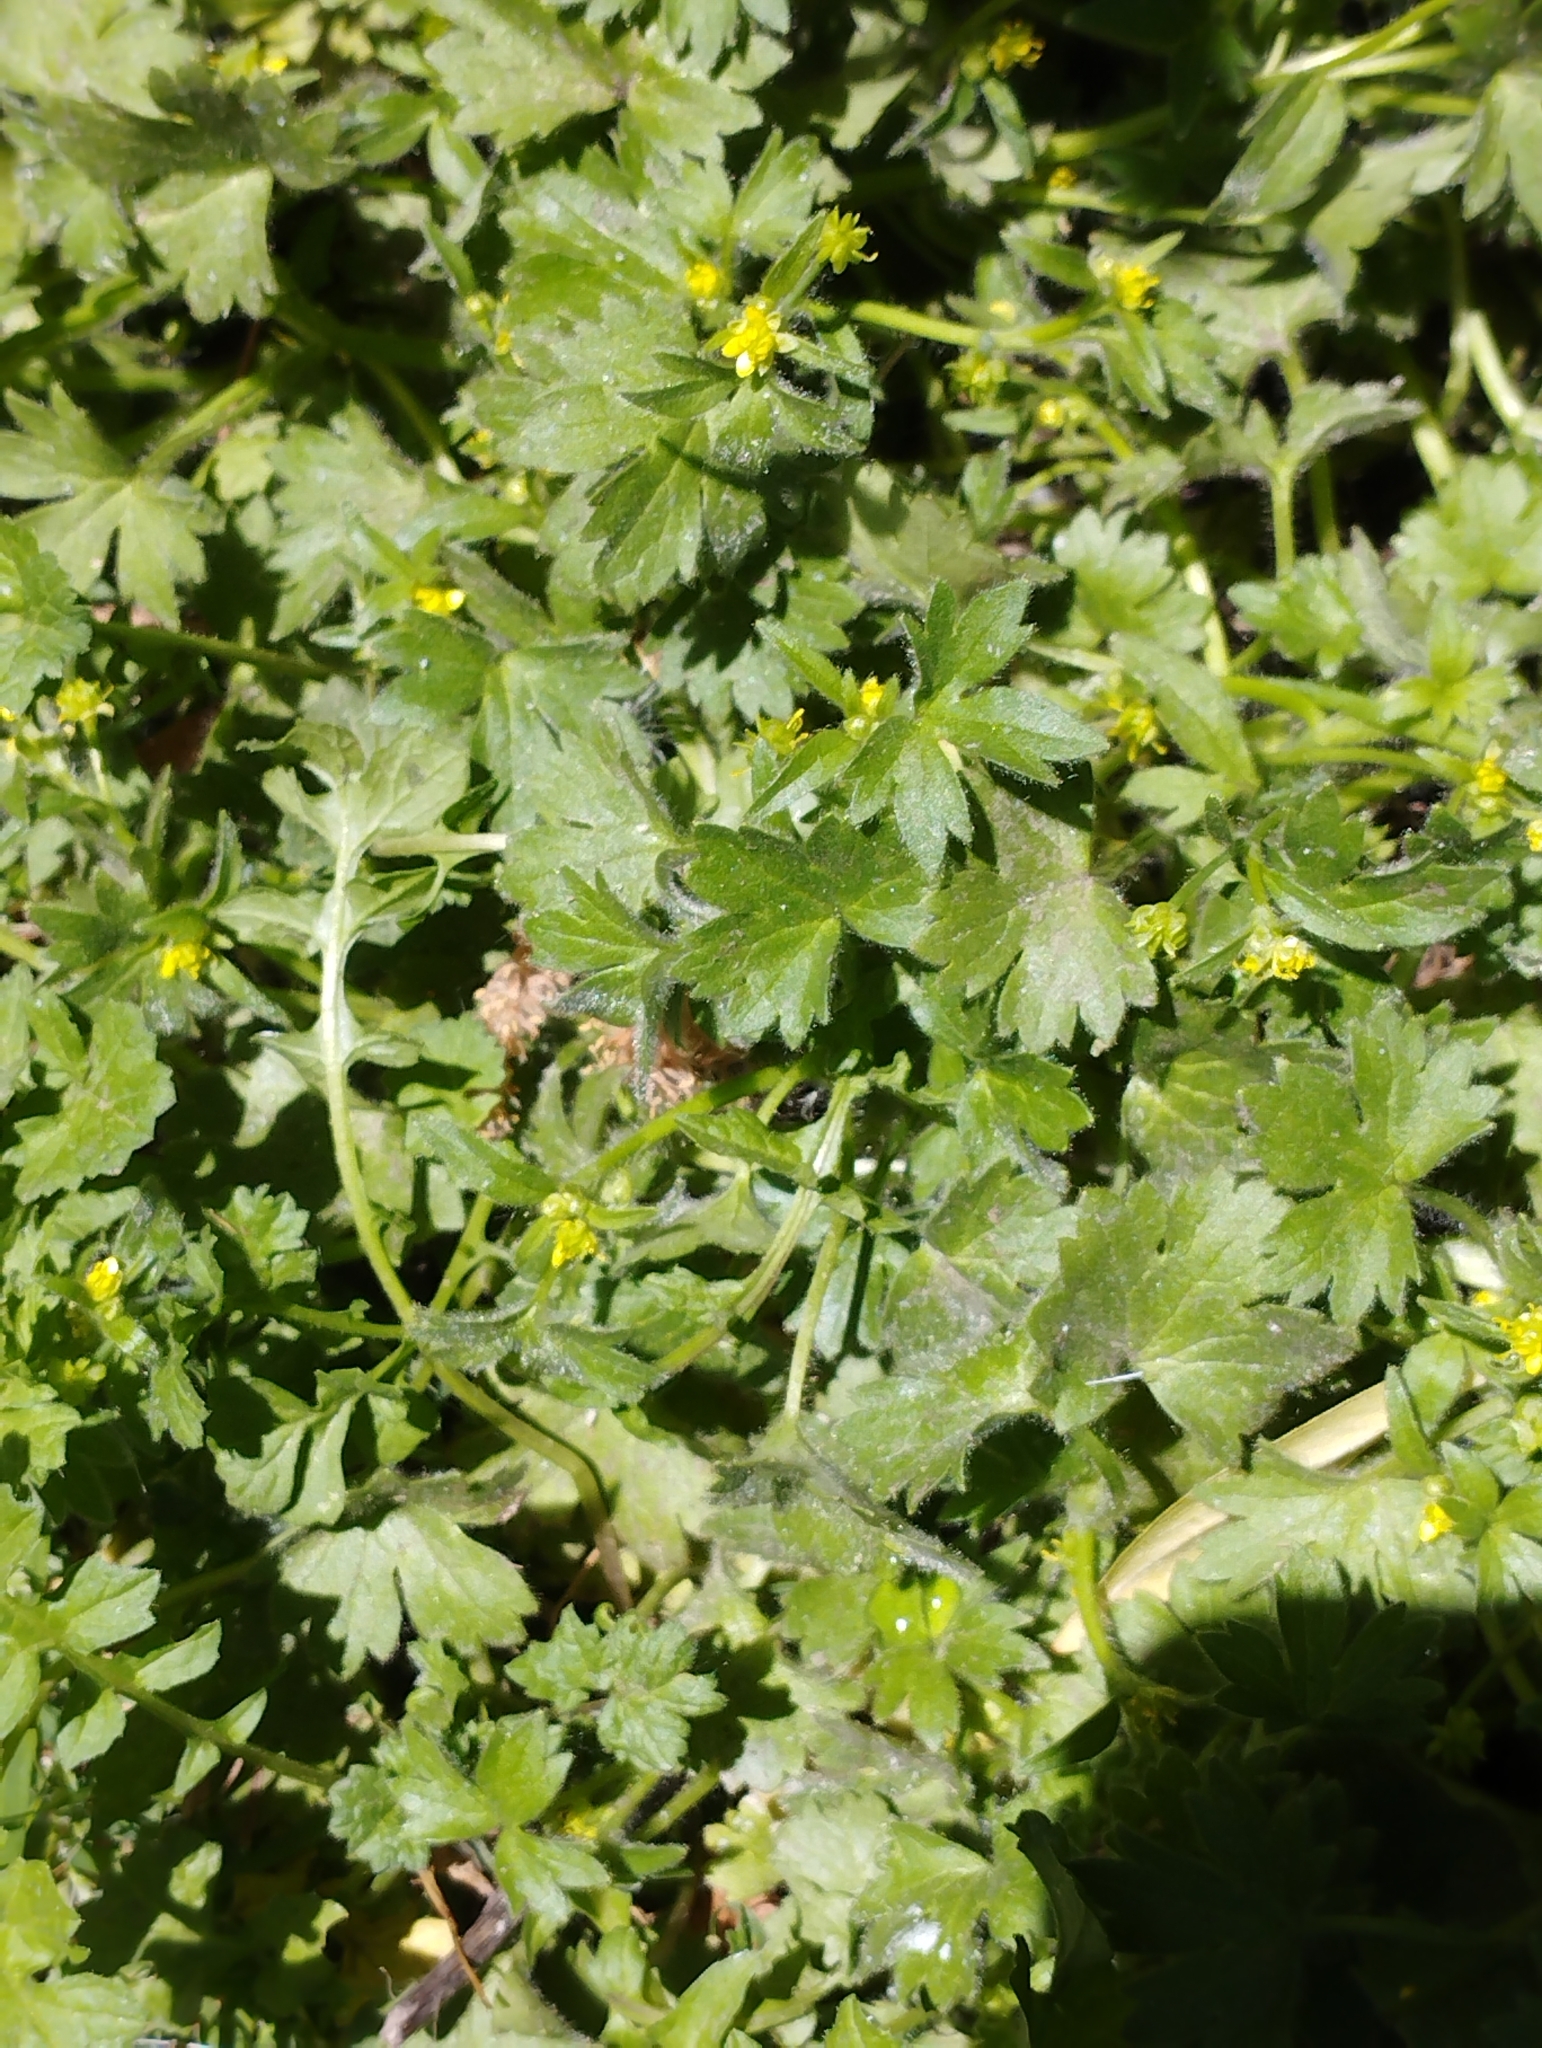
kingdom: Plantae
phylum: Tracheophyta
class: Magnoliopsida
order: Ranunculales
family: Ranunculaceae
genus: Ranunculus
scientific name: Ranunculus parviflorus
